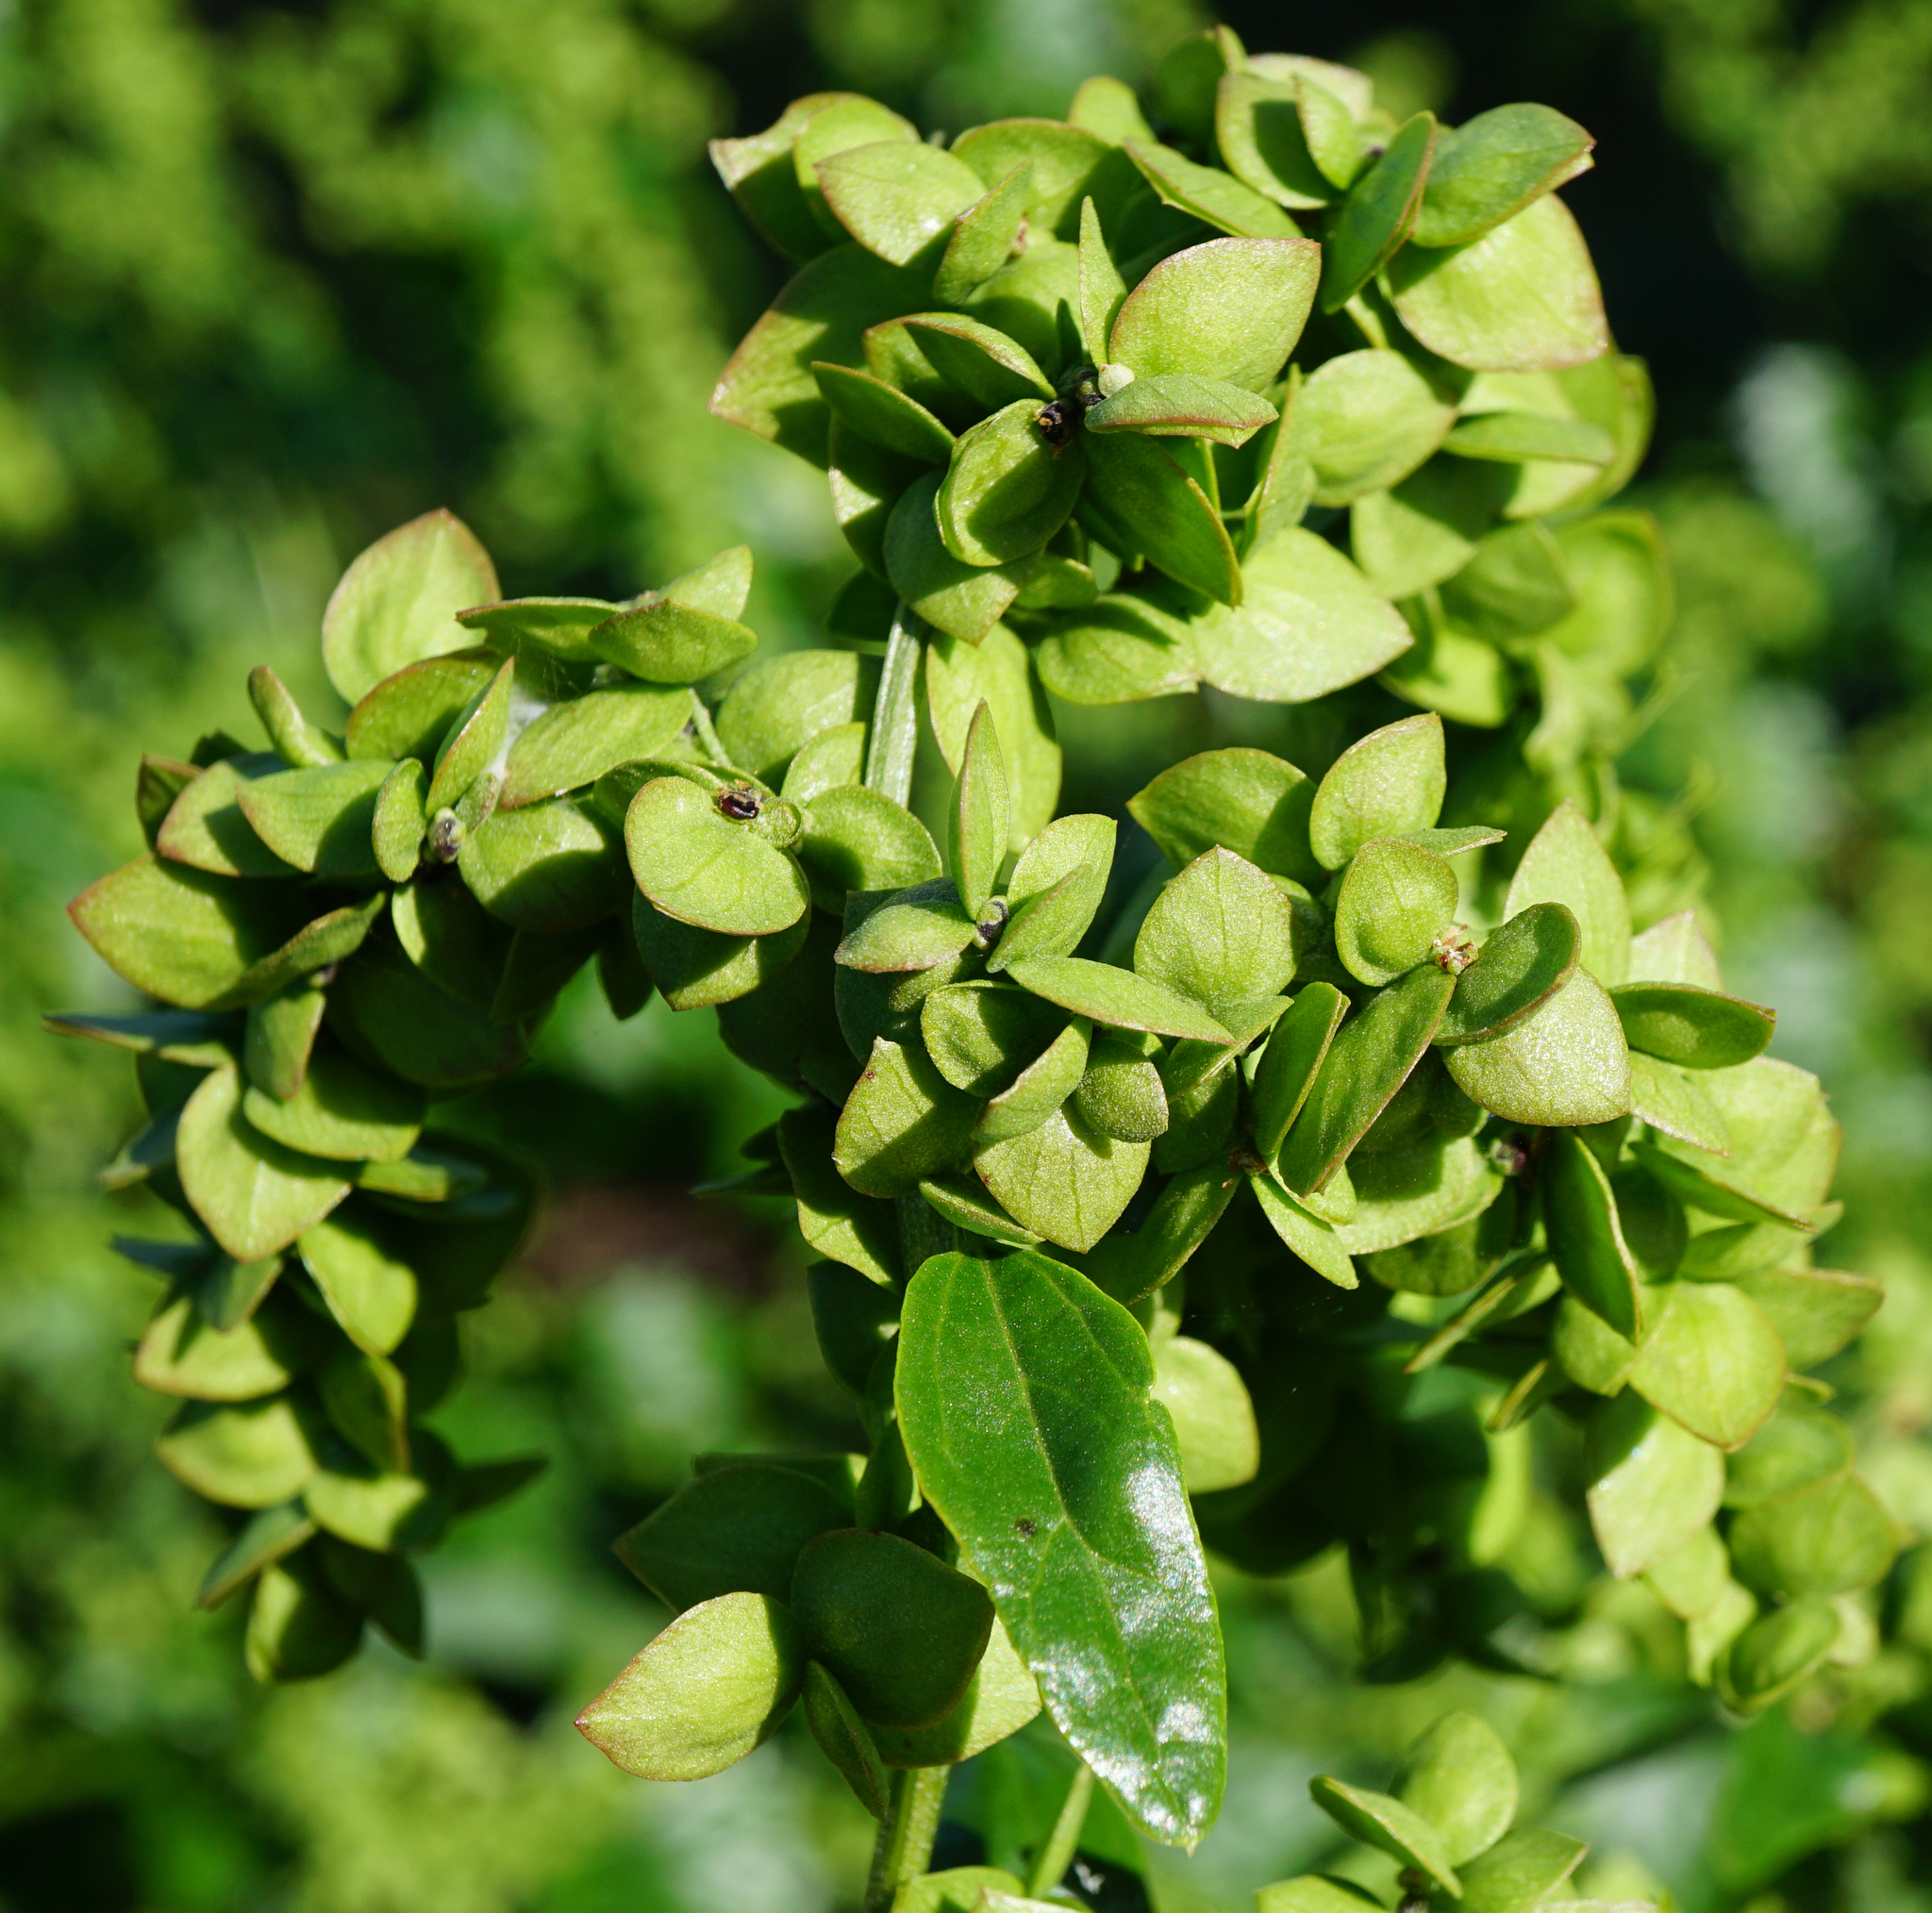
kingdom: Plantae
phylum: Tracheophyta
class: Magnoliopsida
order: Caryophyllales
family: Amaranthaceae
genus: Atriplex
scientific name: Atriplex sagittata
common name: Purple orache
